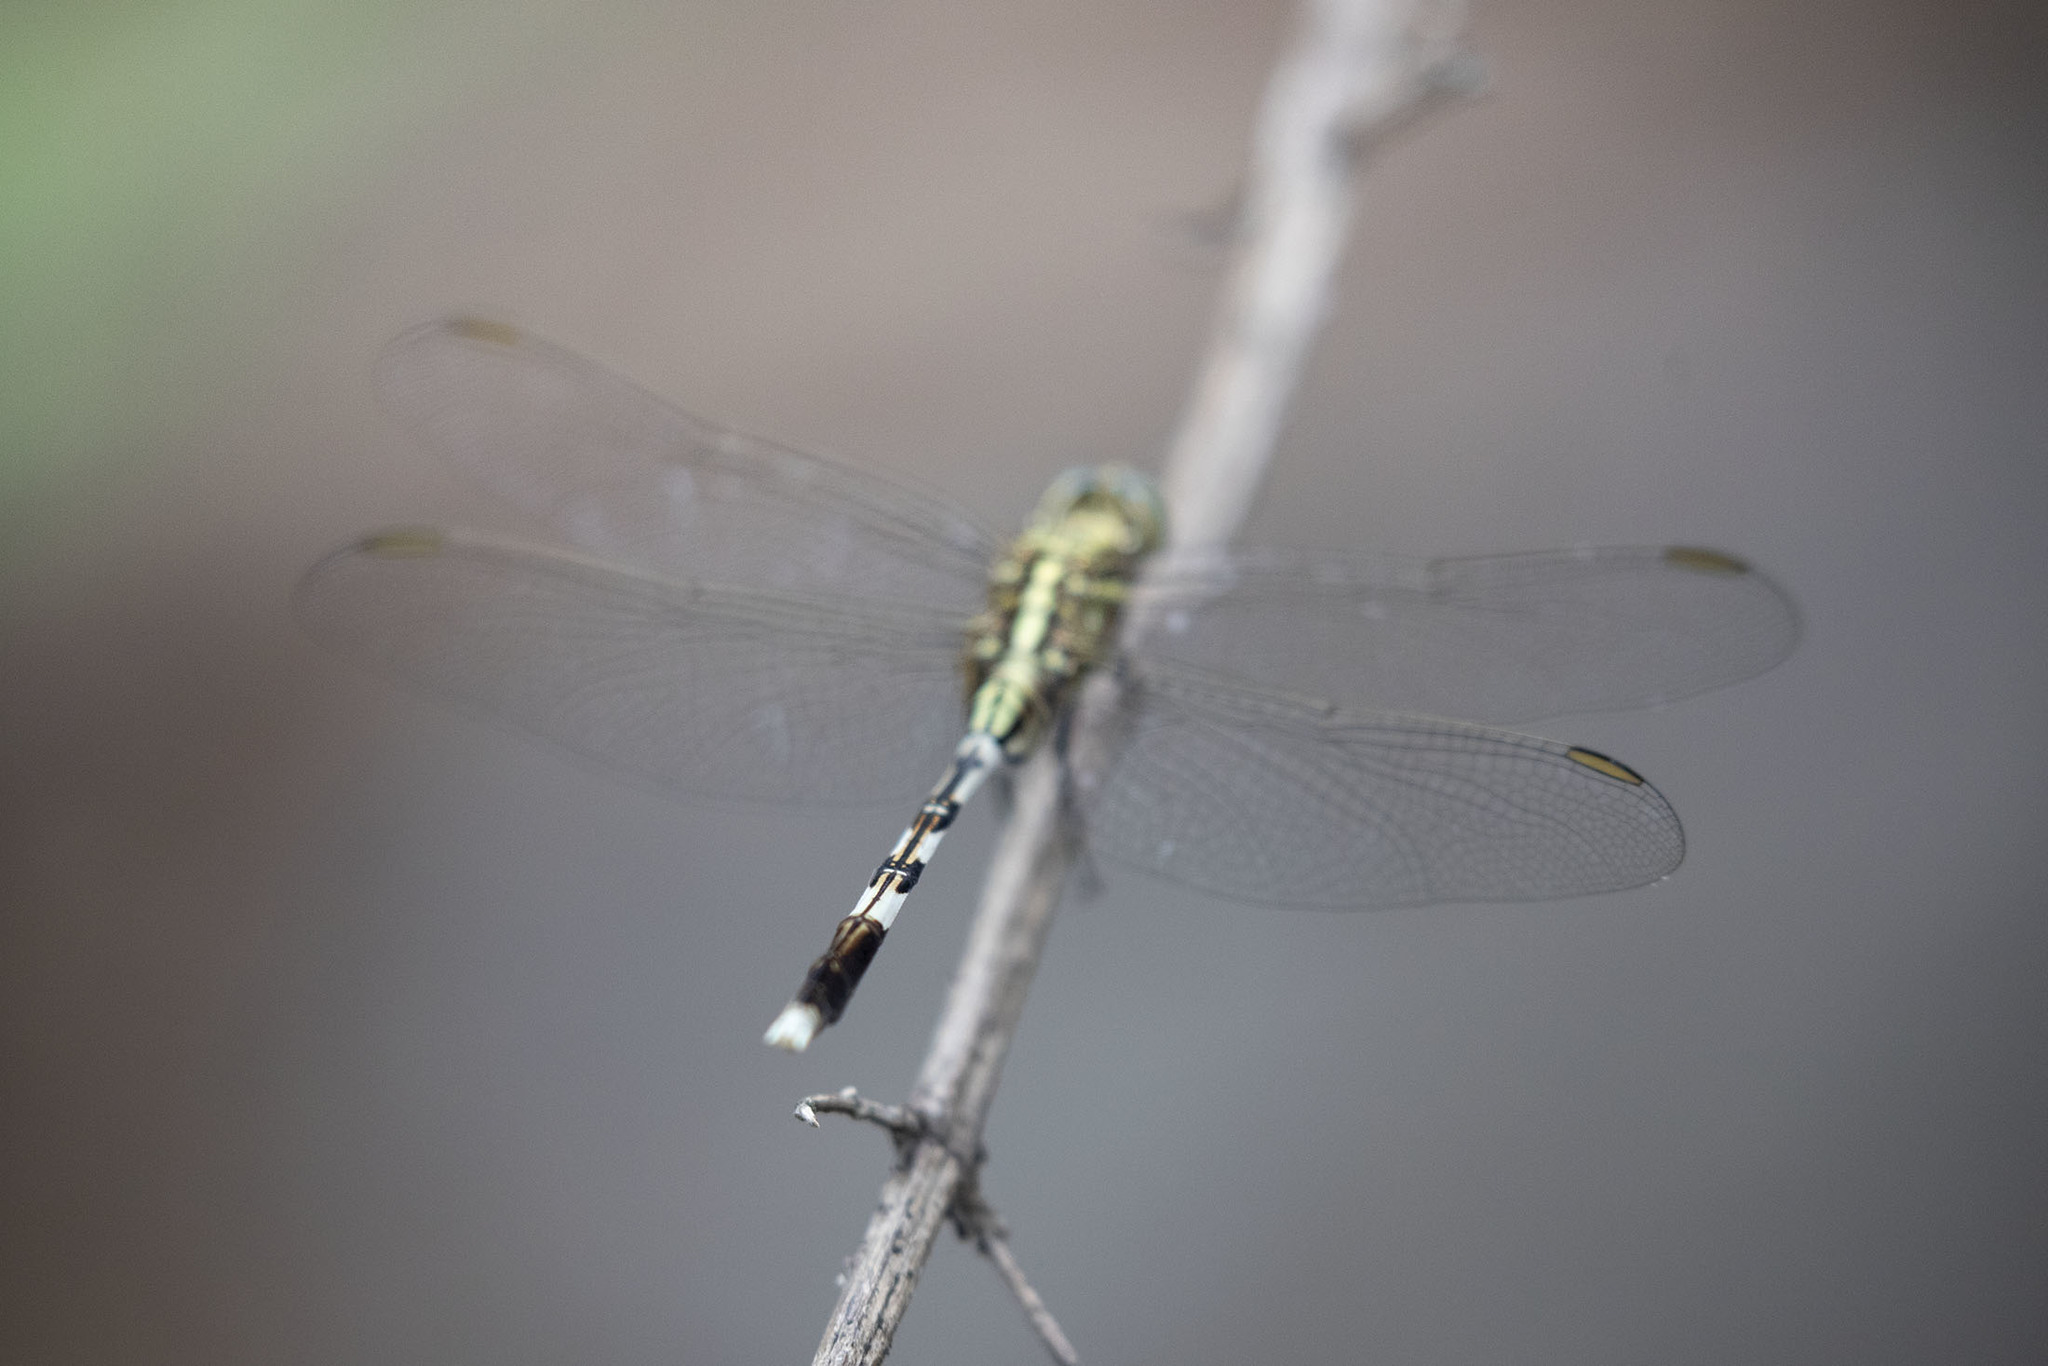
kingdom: Animalia
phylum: Arthropoda
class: Insecta
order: Odonata
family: Libellulidae
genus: Orthetrum
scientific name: Orthetrum sabina
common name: Slender skimmer
